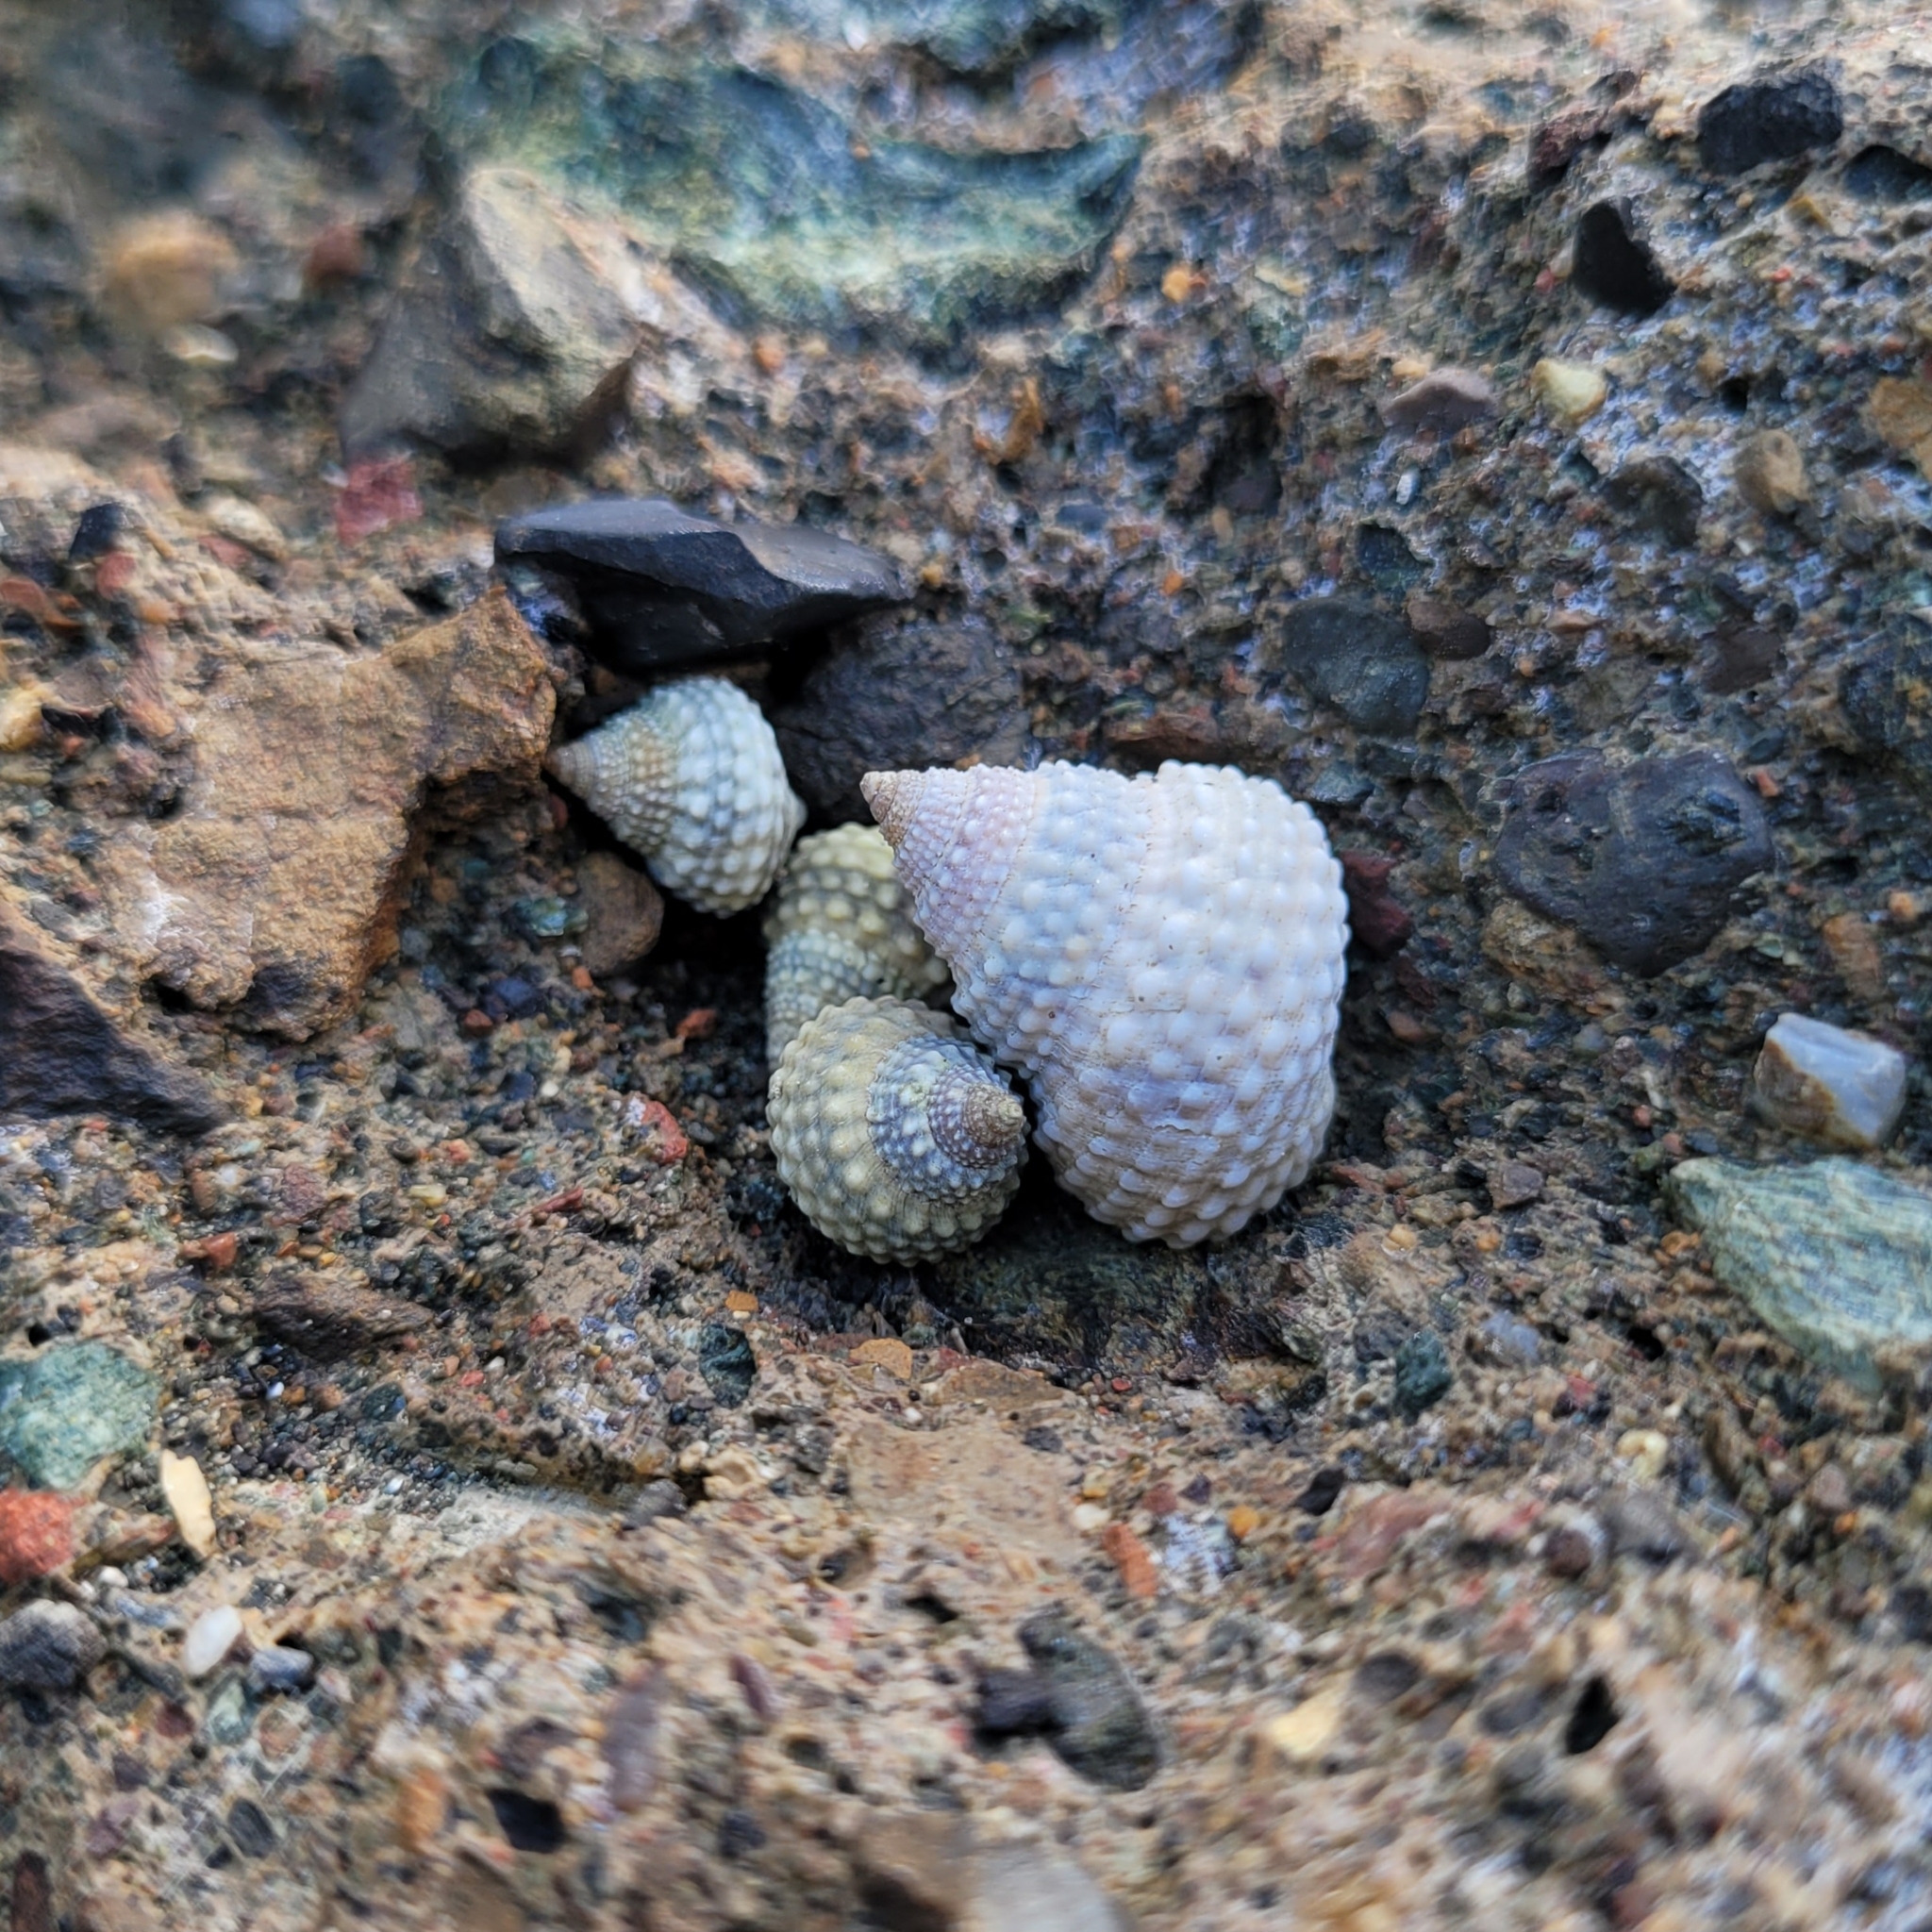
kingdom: Animalia
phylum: Mollusca
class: Gastropoda
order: Littorinimorpha
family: Littorinidae
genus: Cenchritis
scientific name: Cenchritis muricatus
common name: Beaded periwinkle
